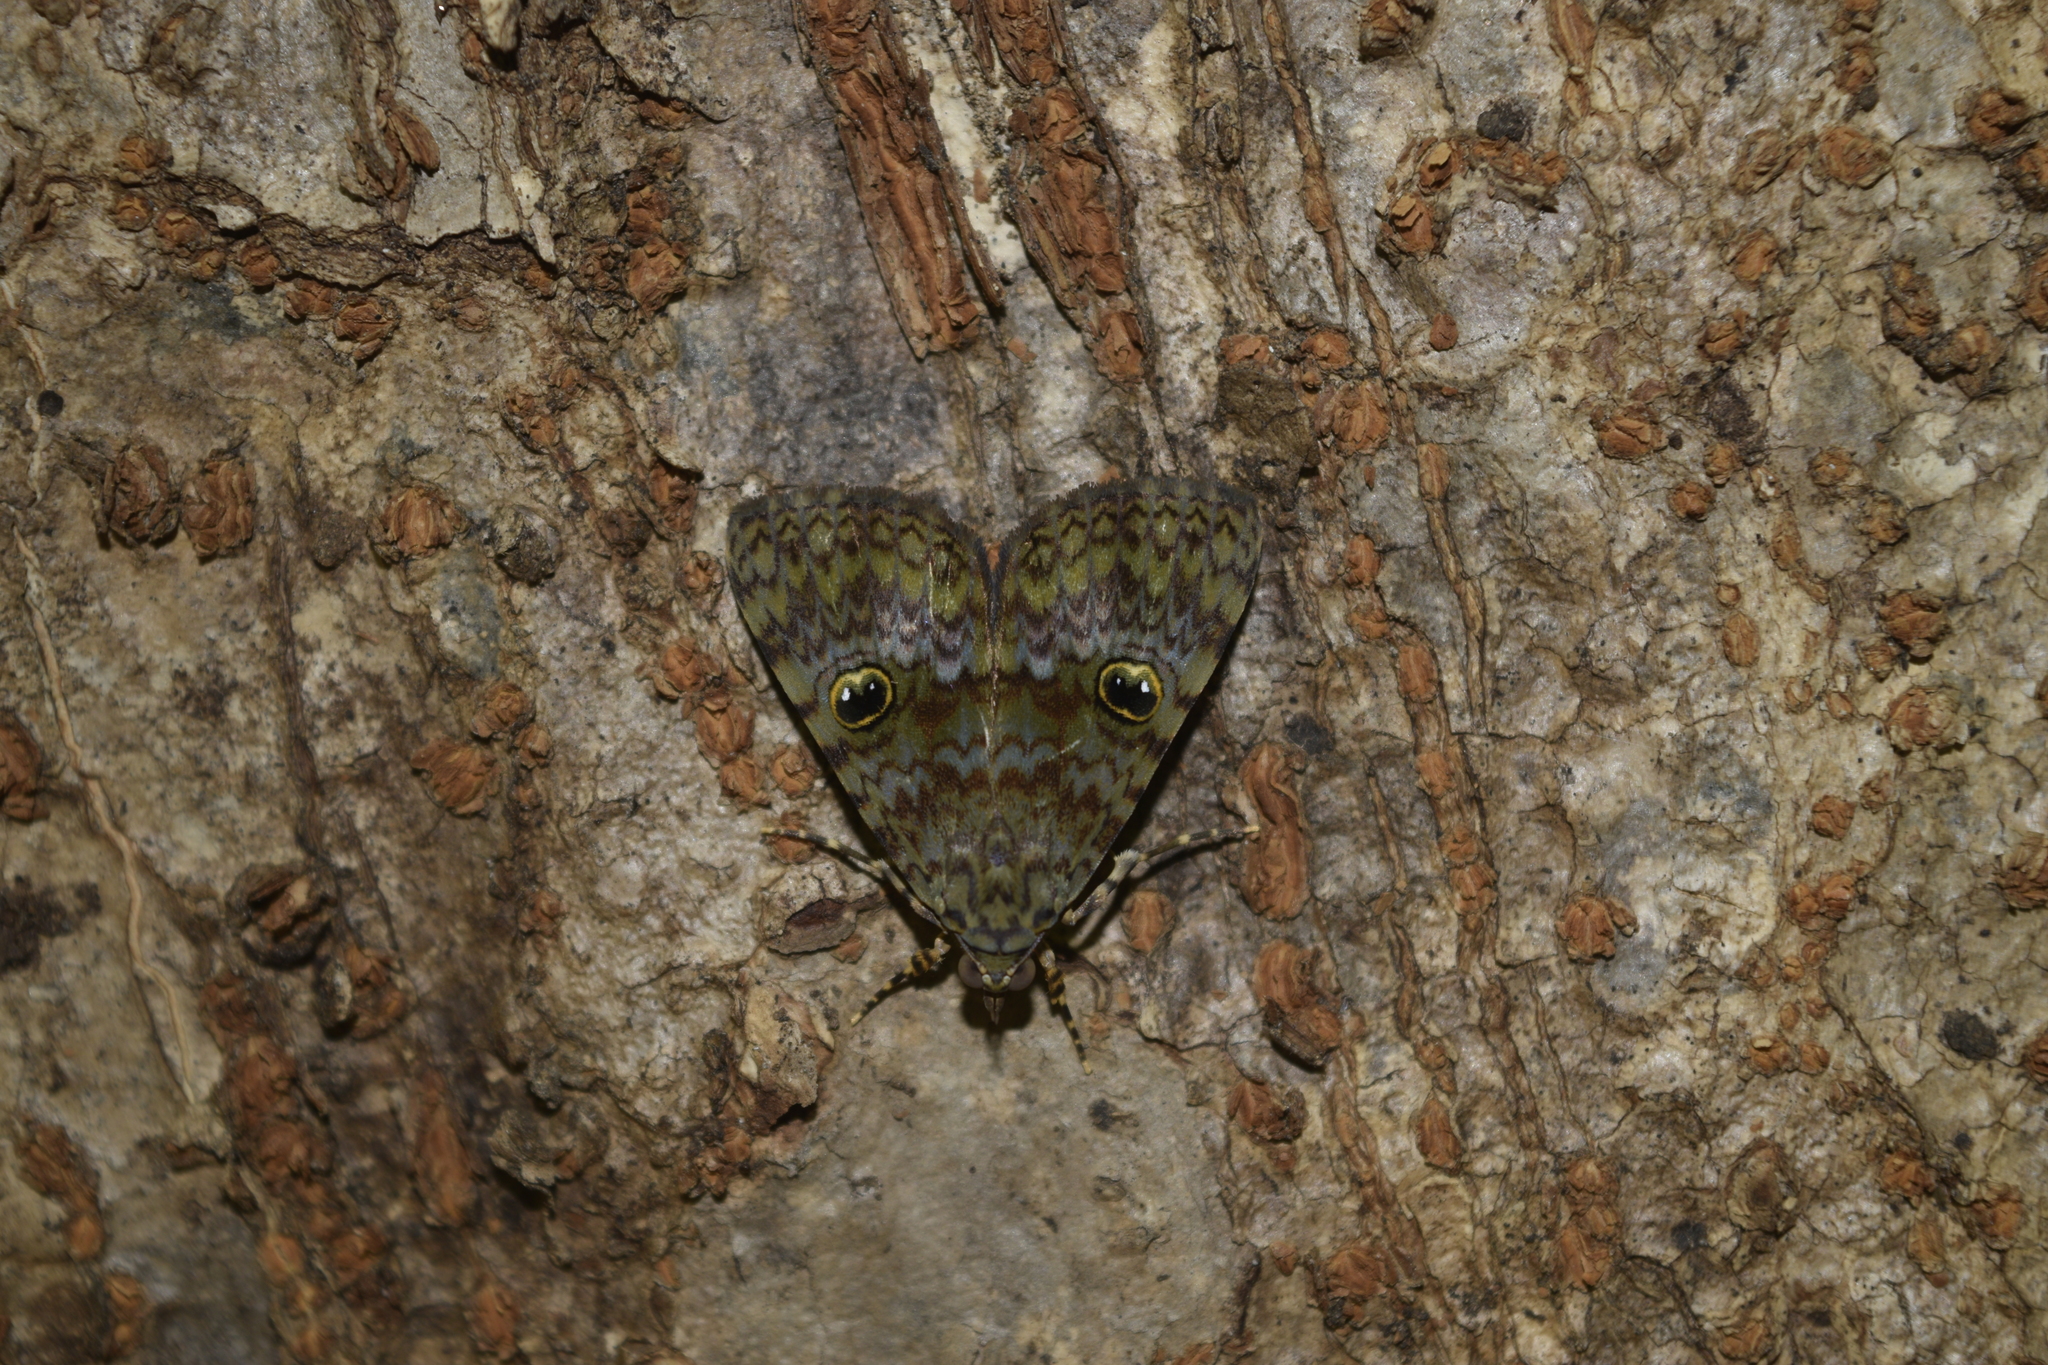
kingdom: Animalia
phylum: Arthropoda
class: Insecta
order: Lepidoptera
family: Erebidae
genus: Glenopteris
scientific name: Glenopteris oculifera
